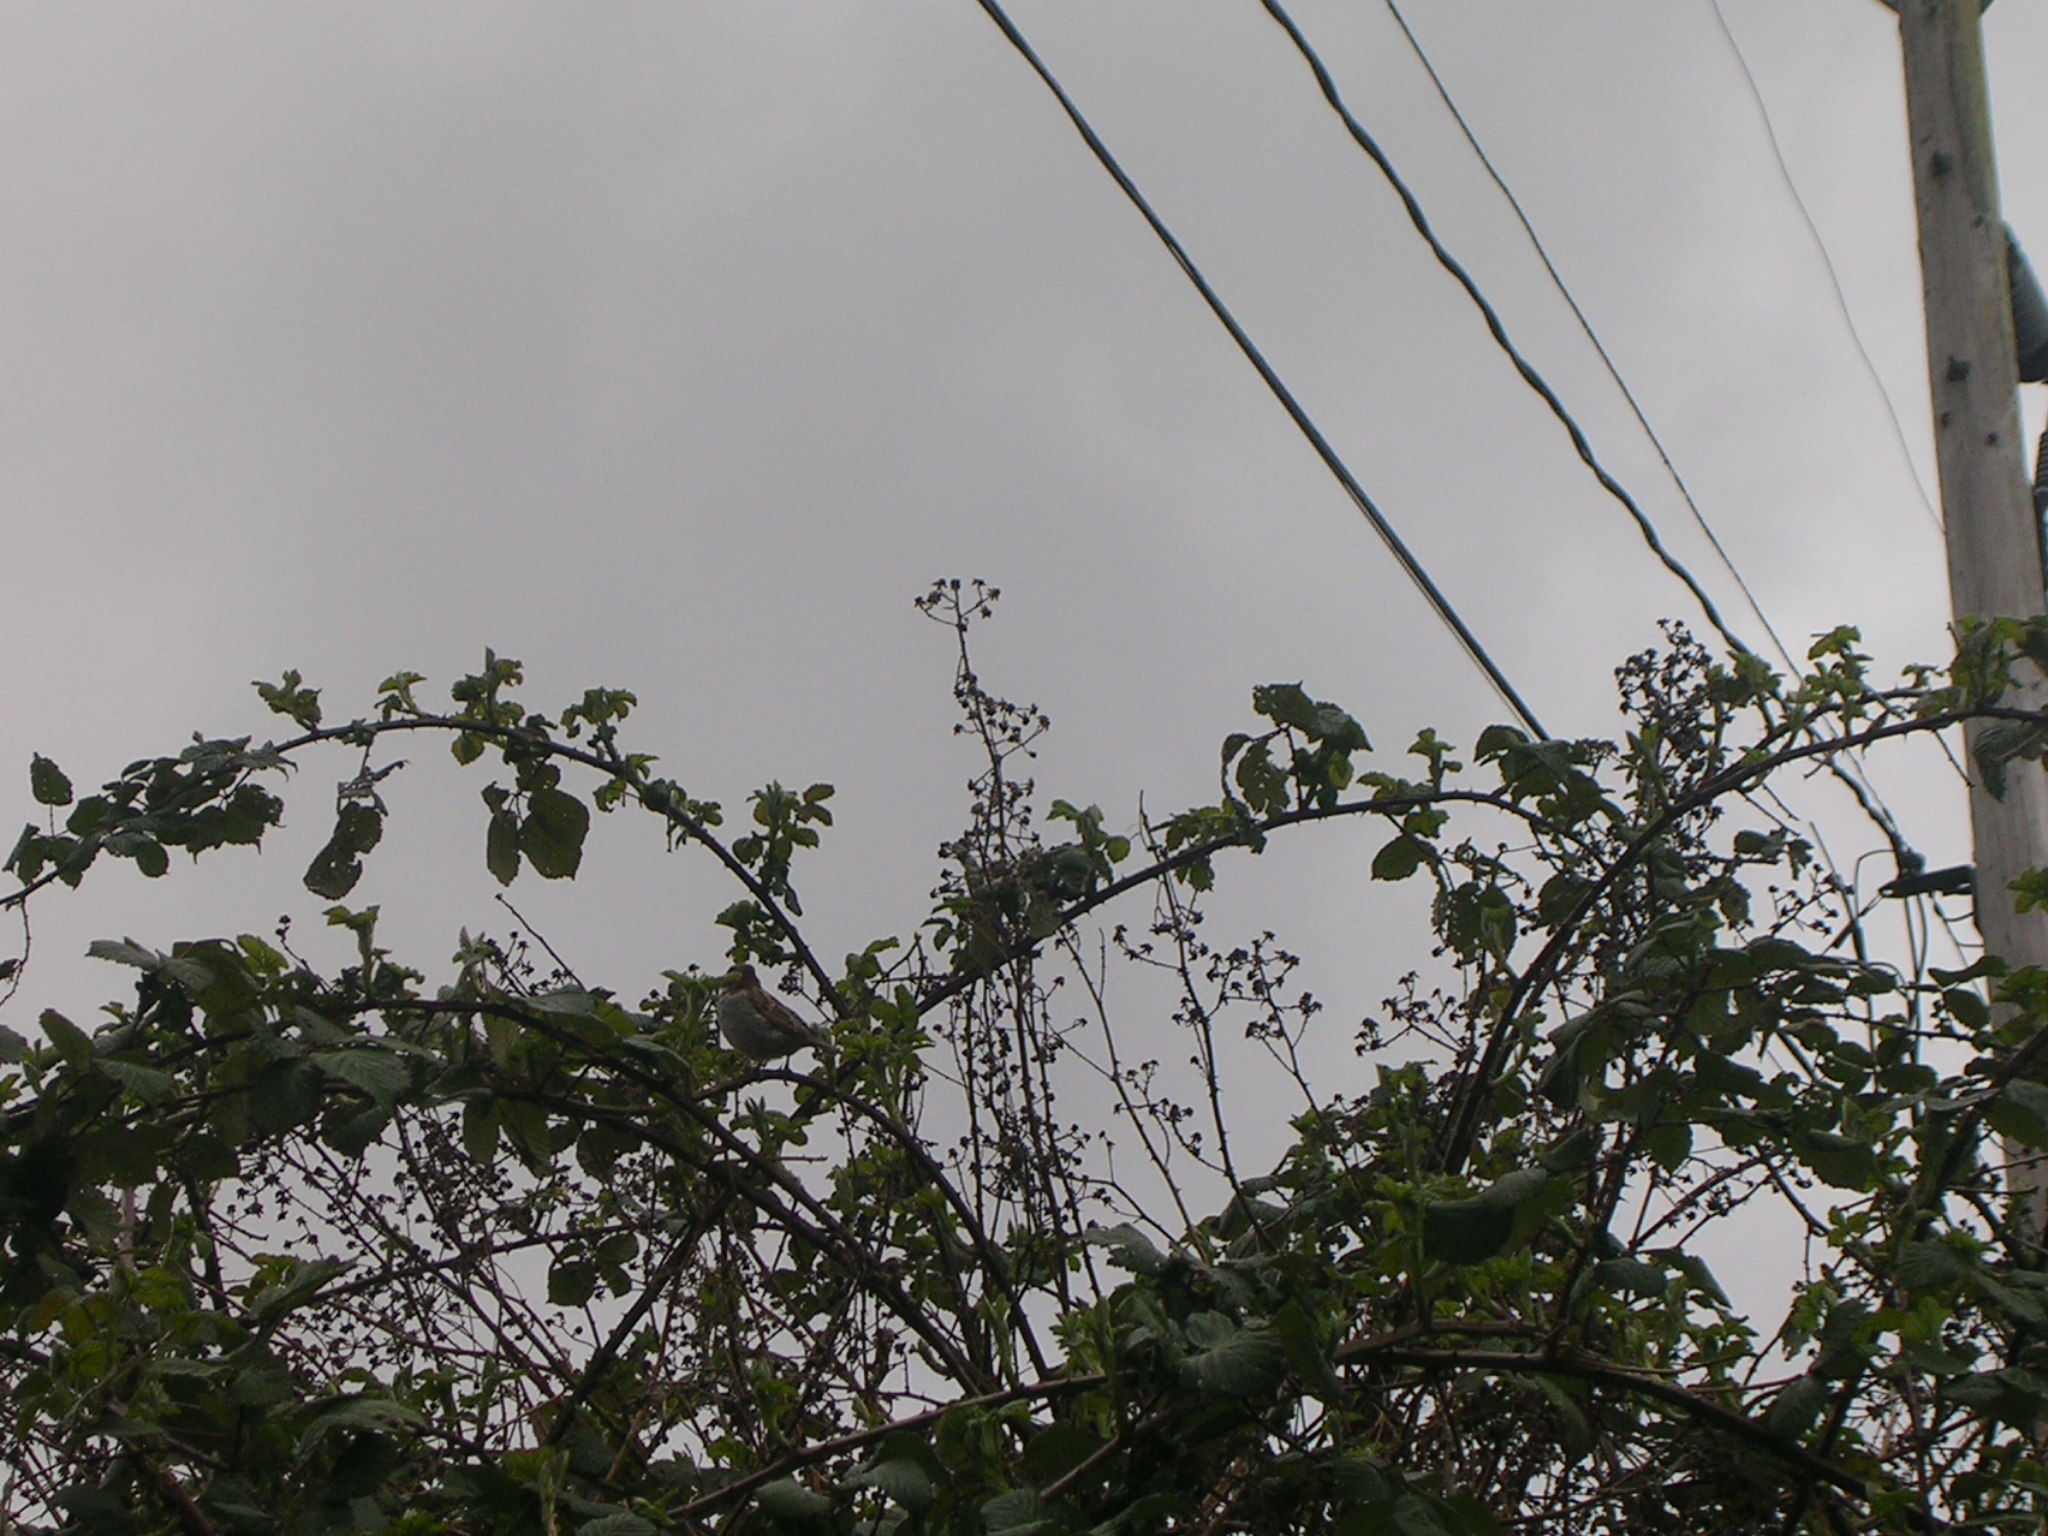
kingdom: Animalia
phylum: Chordata
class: Aves
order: Passeriformes
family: Passeridae
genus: Passer
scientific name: Passer domesticus
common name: House sparrow
